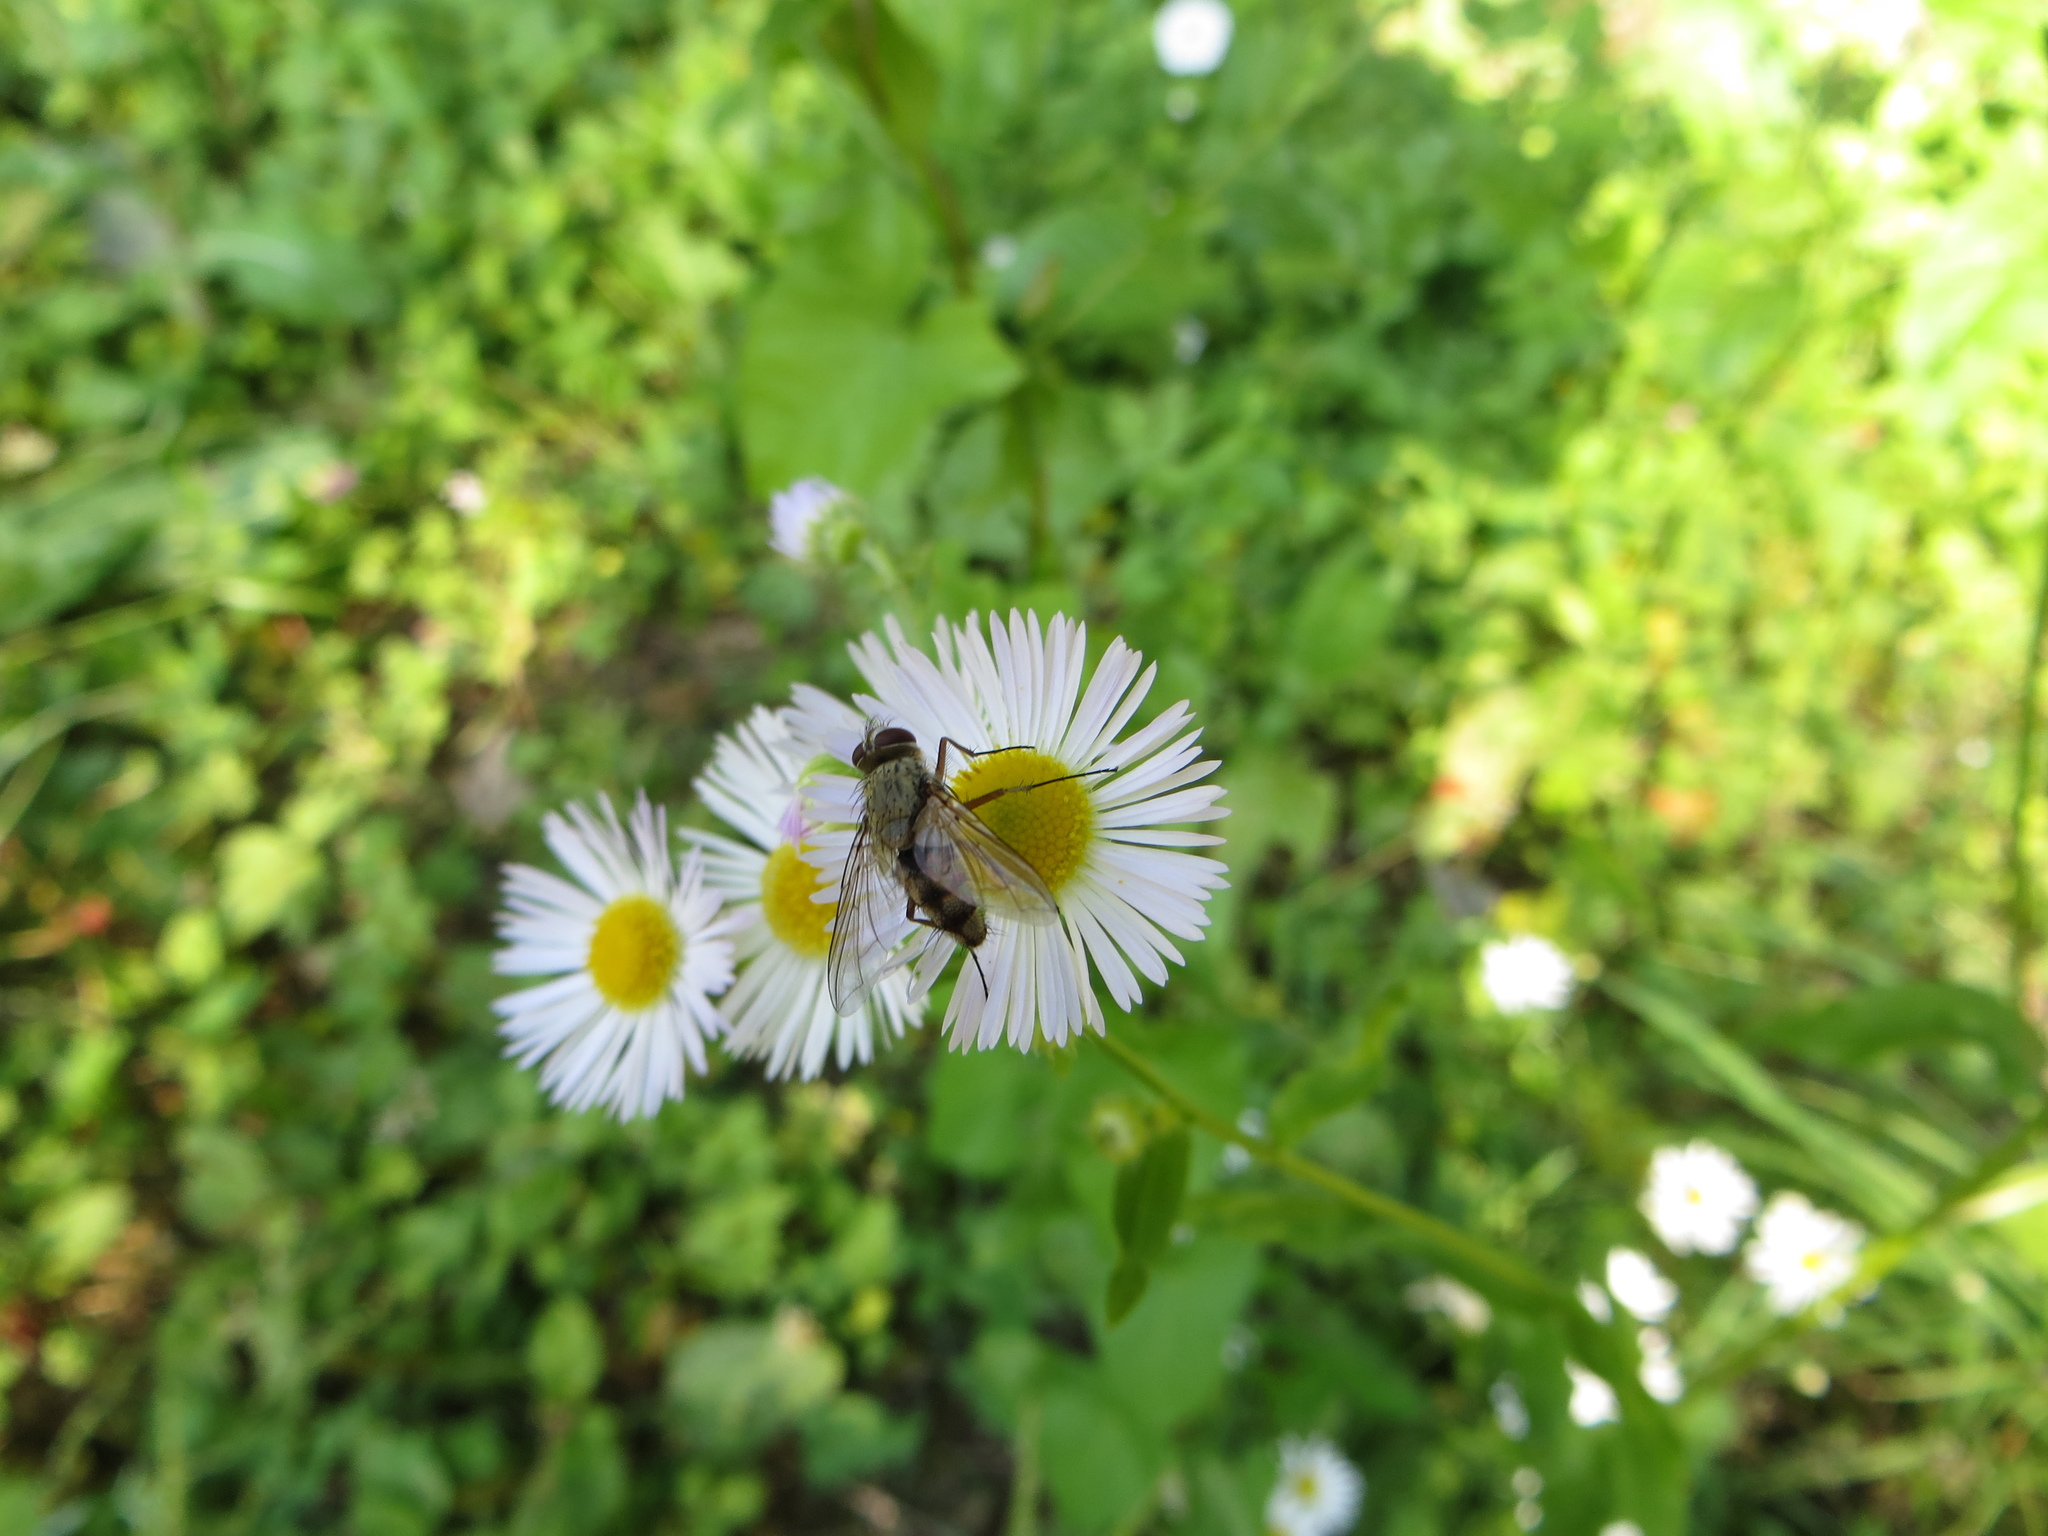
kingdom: Animalia
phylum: Arthropoda
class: Insecta
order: Diptera
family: Tachinidae
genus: Prosena
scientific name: Prosena siberita
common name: Parasitic fly
